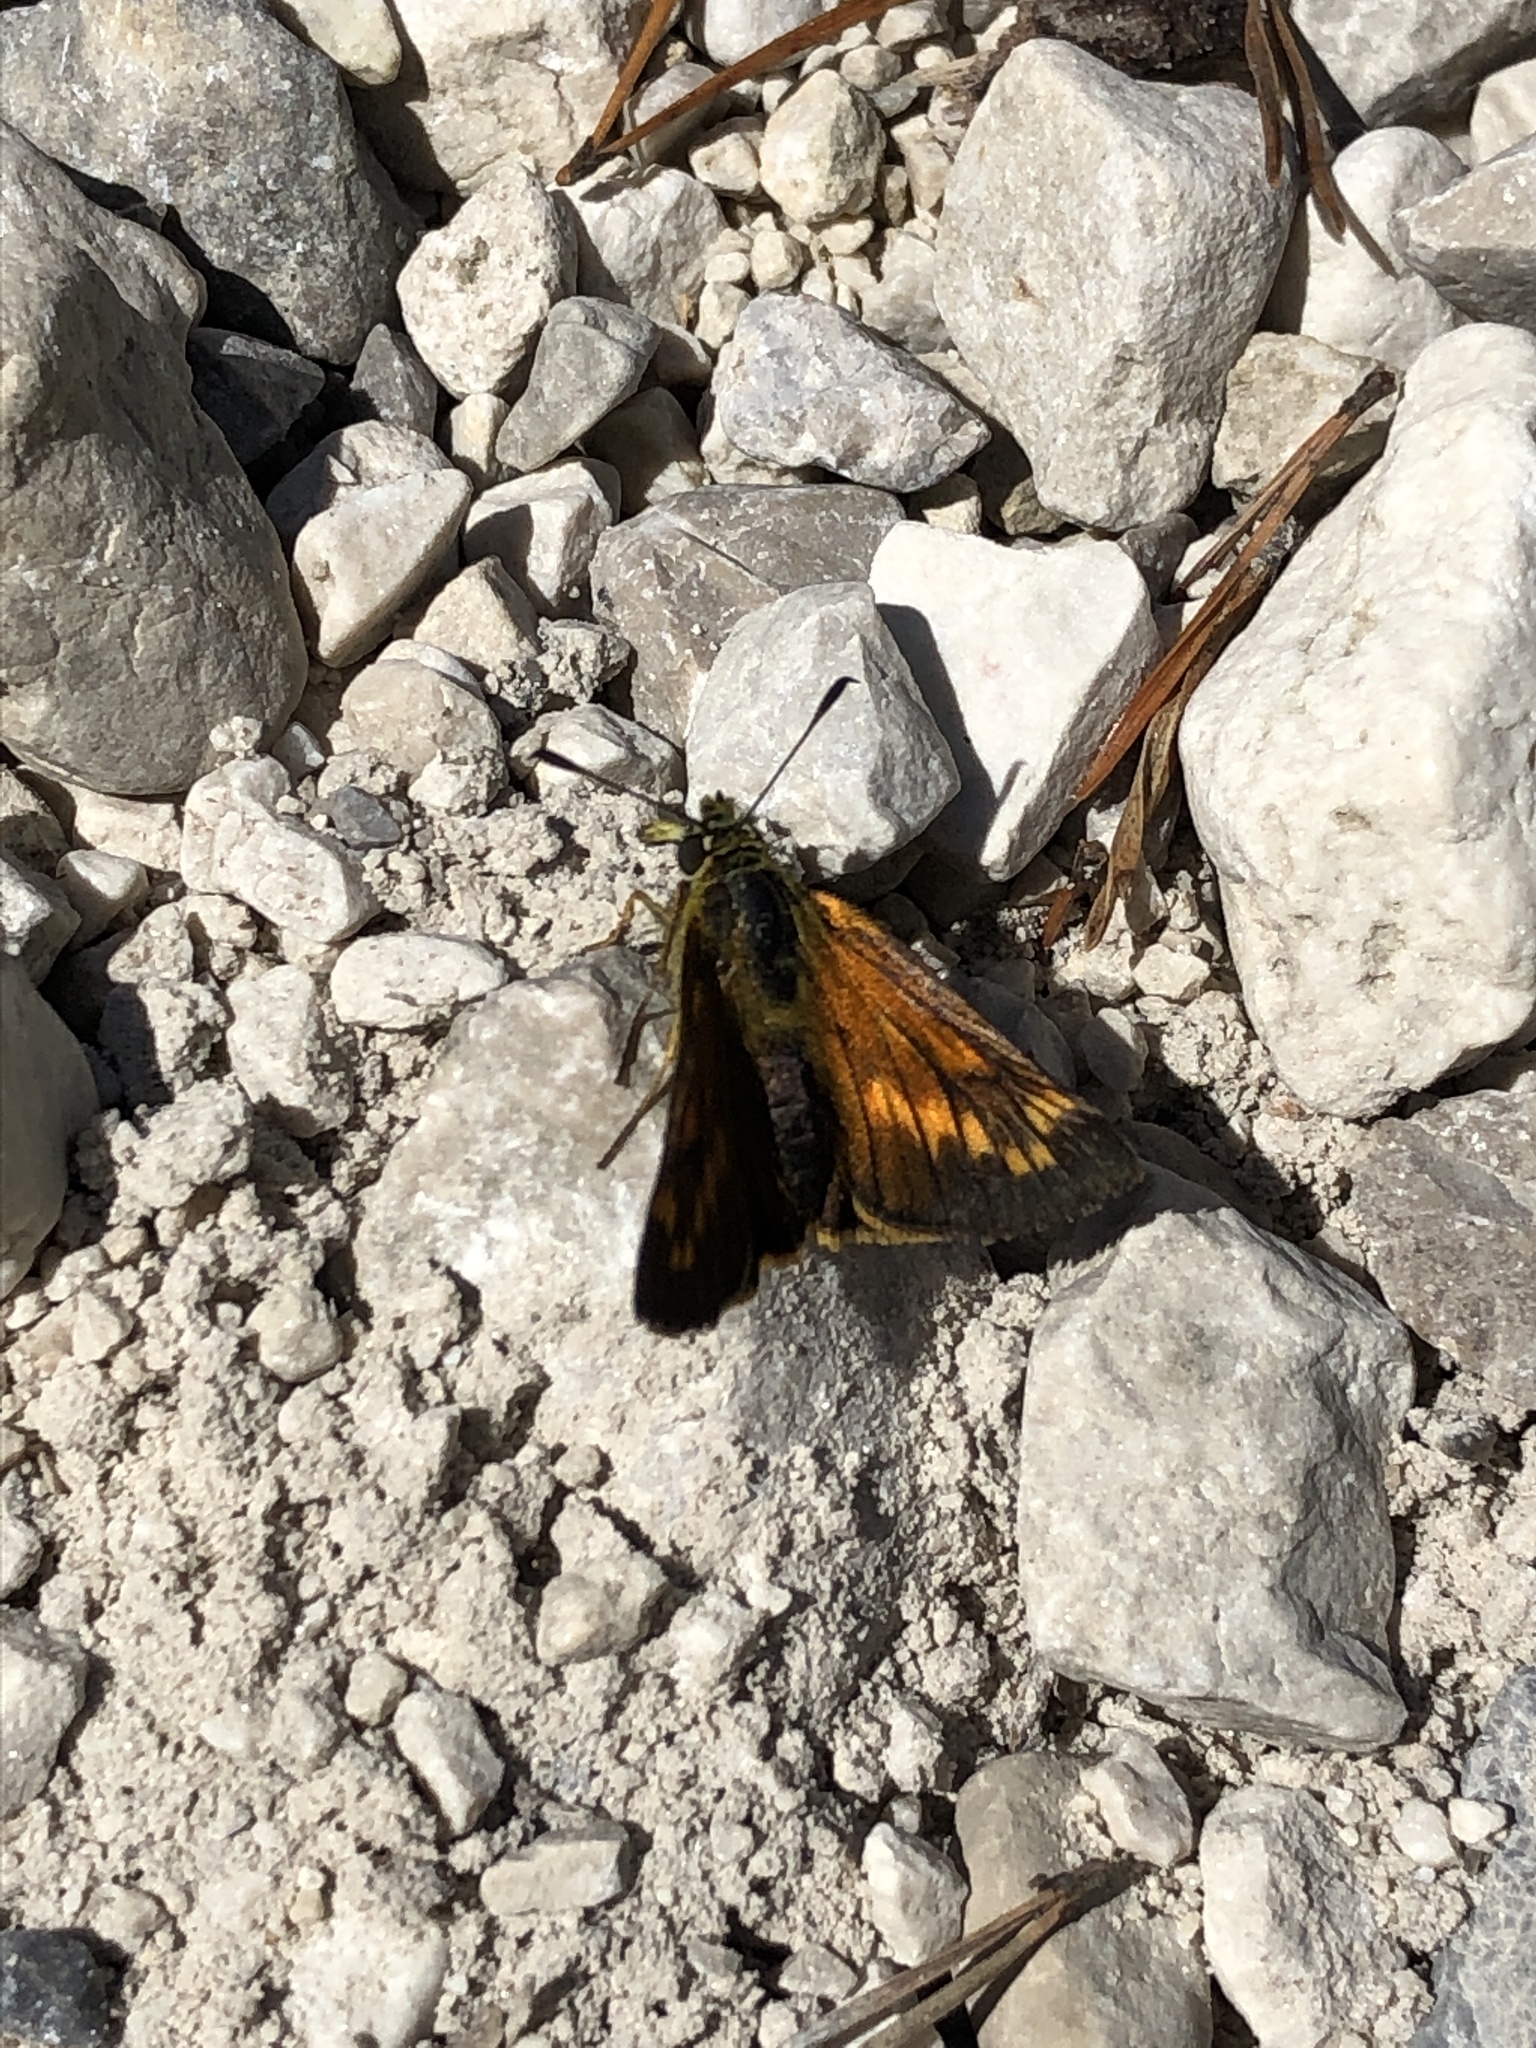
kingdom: Animalia
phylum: Arthropoda
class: Insecta
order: Lepidoptera
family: Hesperiidae
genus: Ochlodes
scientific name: Ochlodes venata
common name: Large skipper
